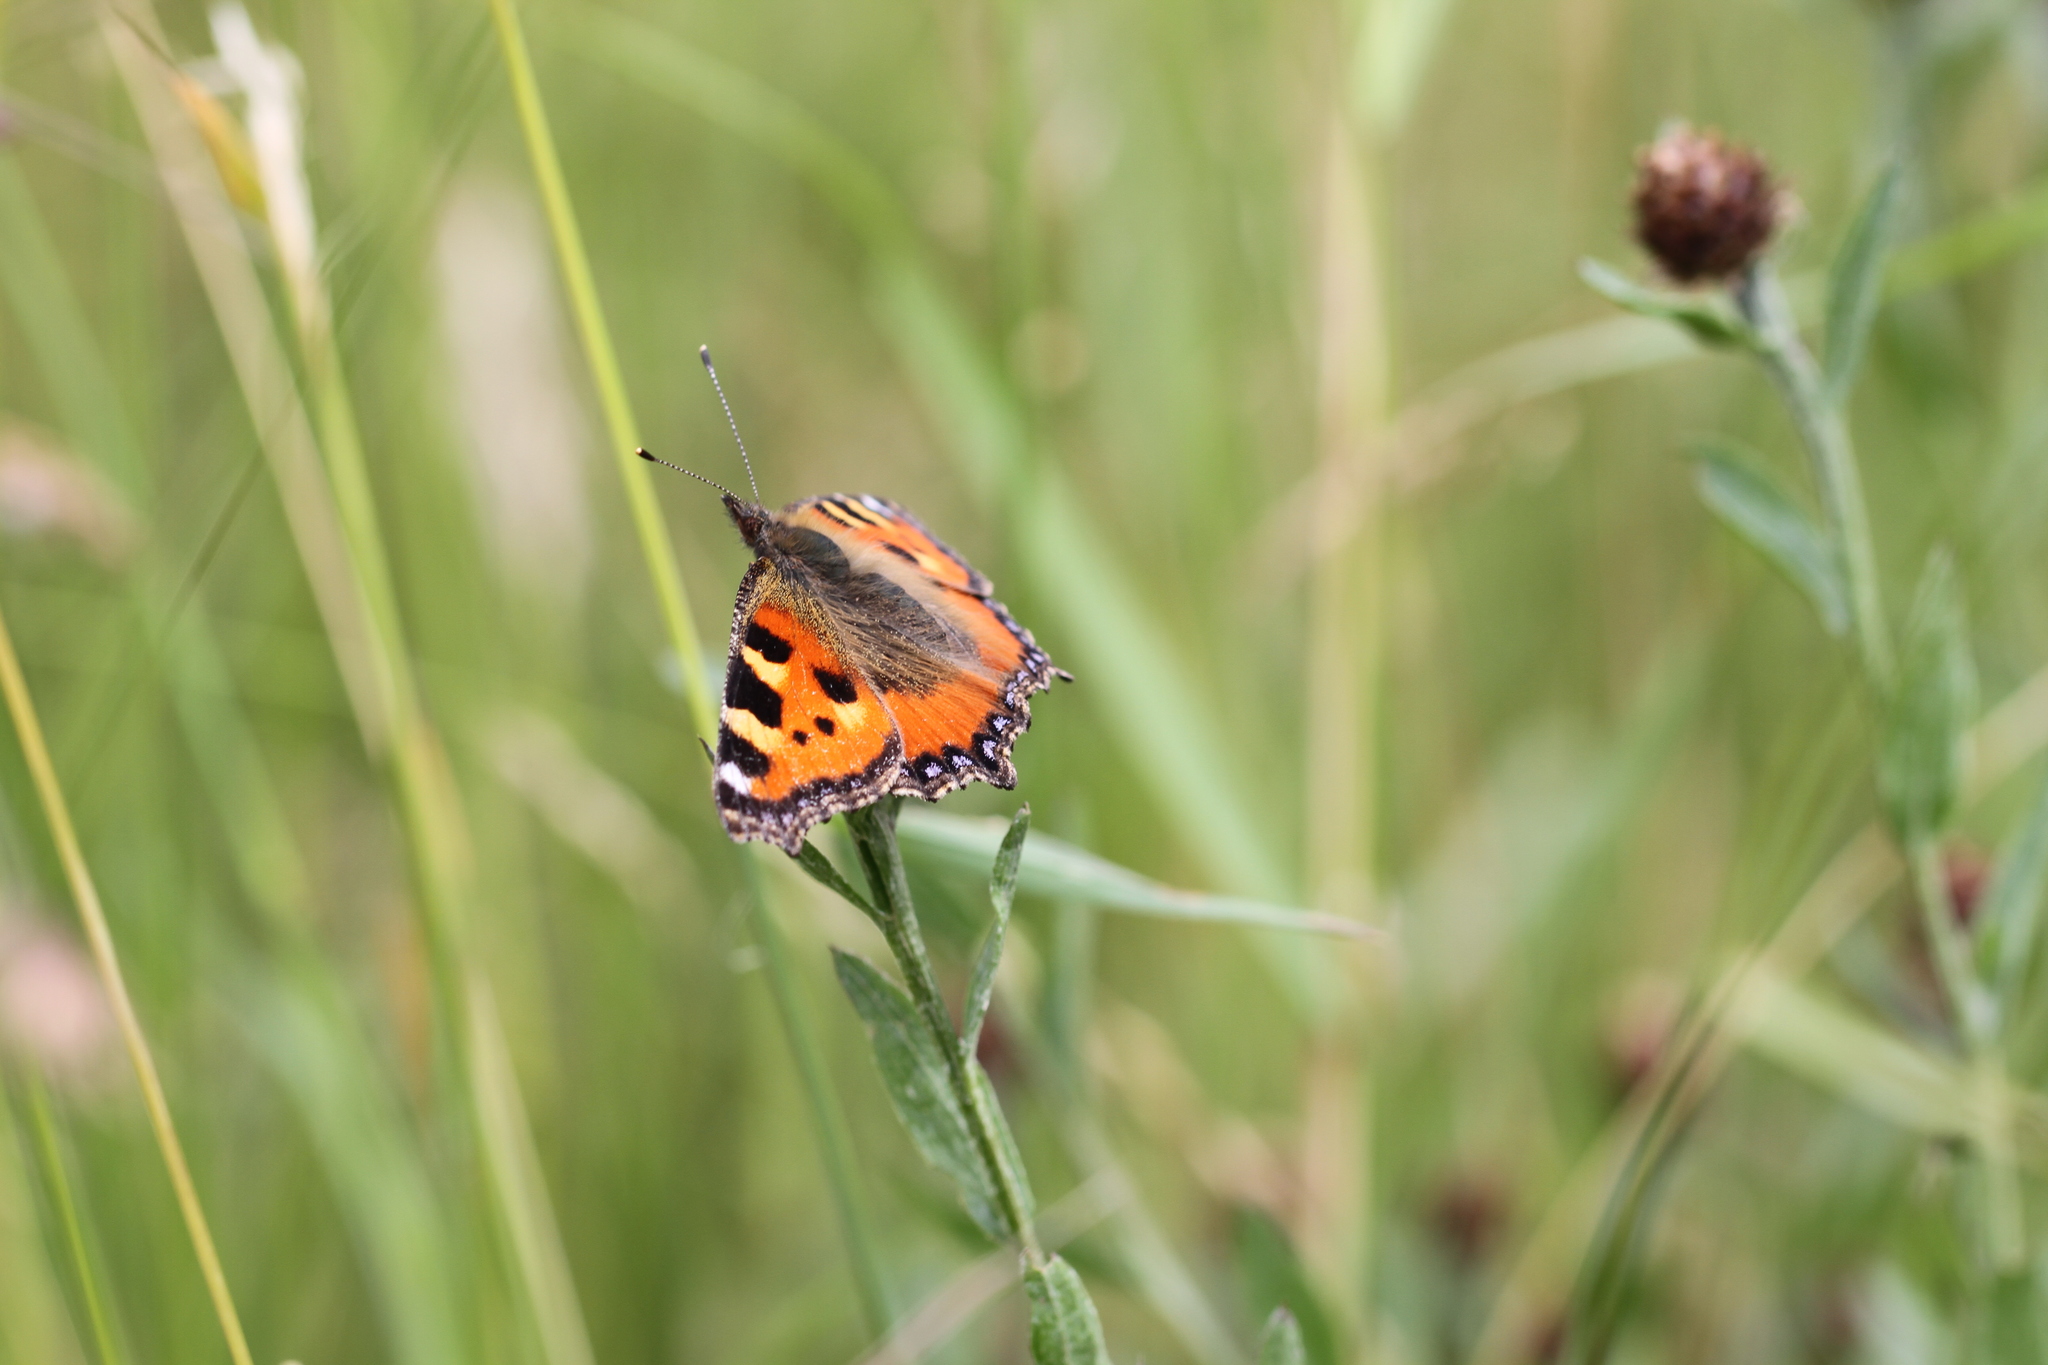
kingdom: Animalia
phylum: Arthropoda
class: Insecta
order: Lepidoptera
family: Nymphalidae
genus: Aglais
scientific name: Aglais urticae
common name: Small tortoiseshell
